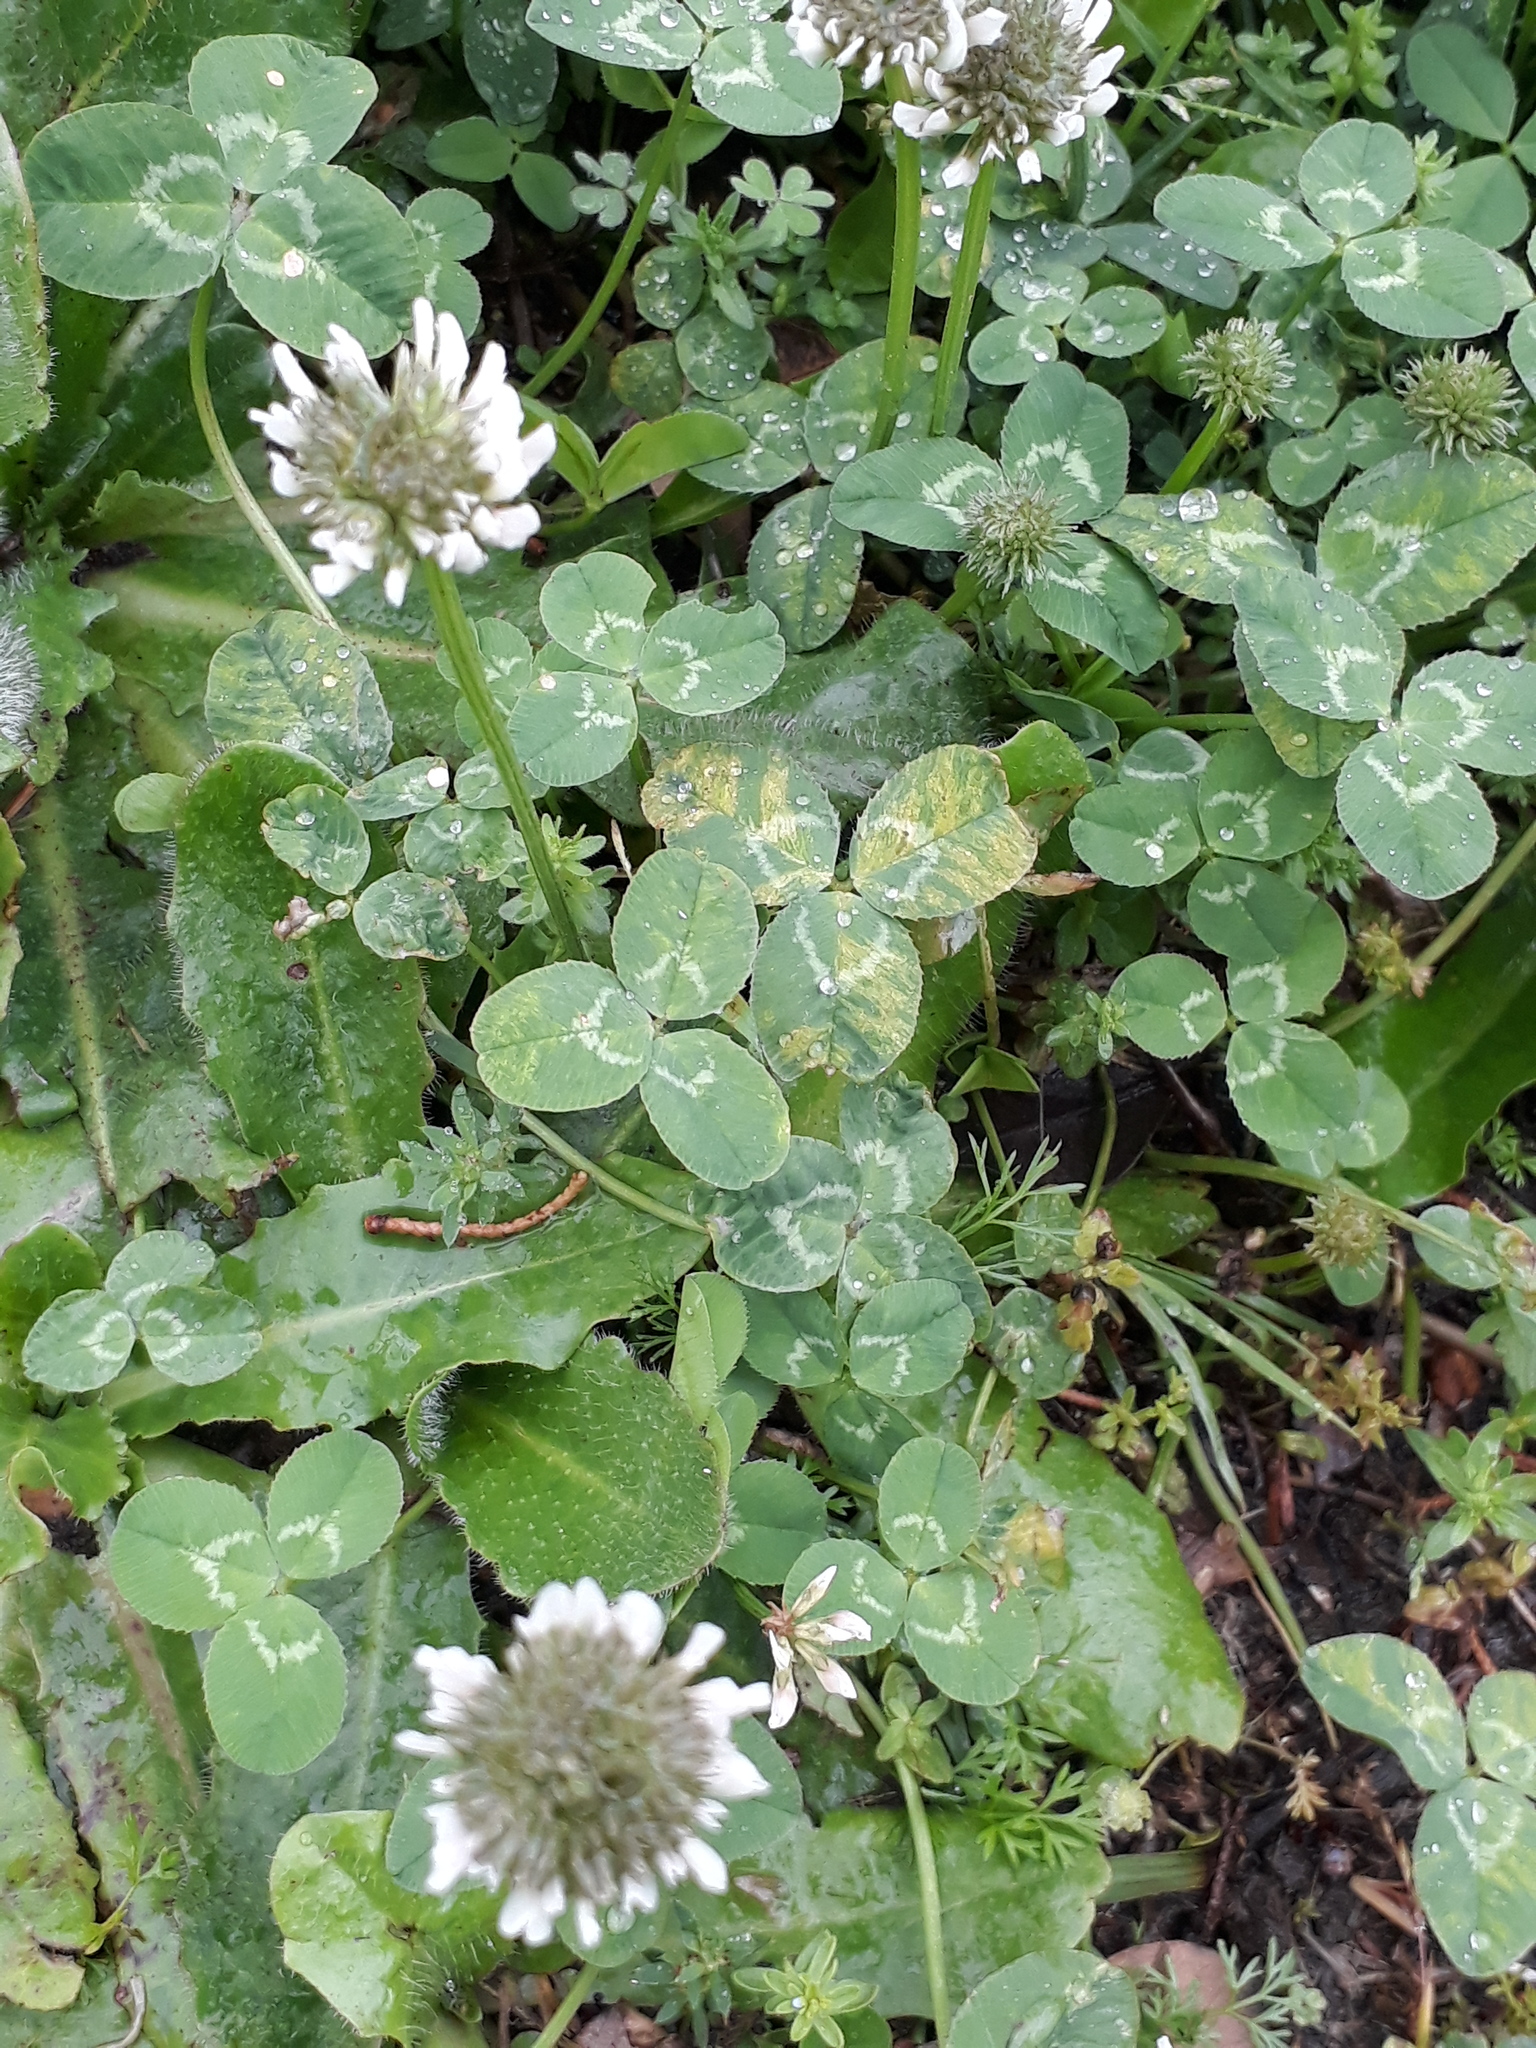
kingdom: Plantae
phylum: Tracheophyta
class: Magnoliopsida
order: Fabales
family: Fabaceae
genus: Trifolium
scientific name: Trifolium repens
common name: White clover
